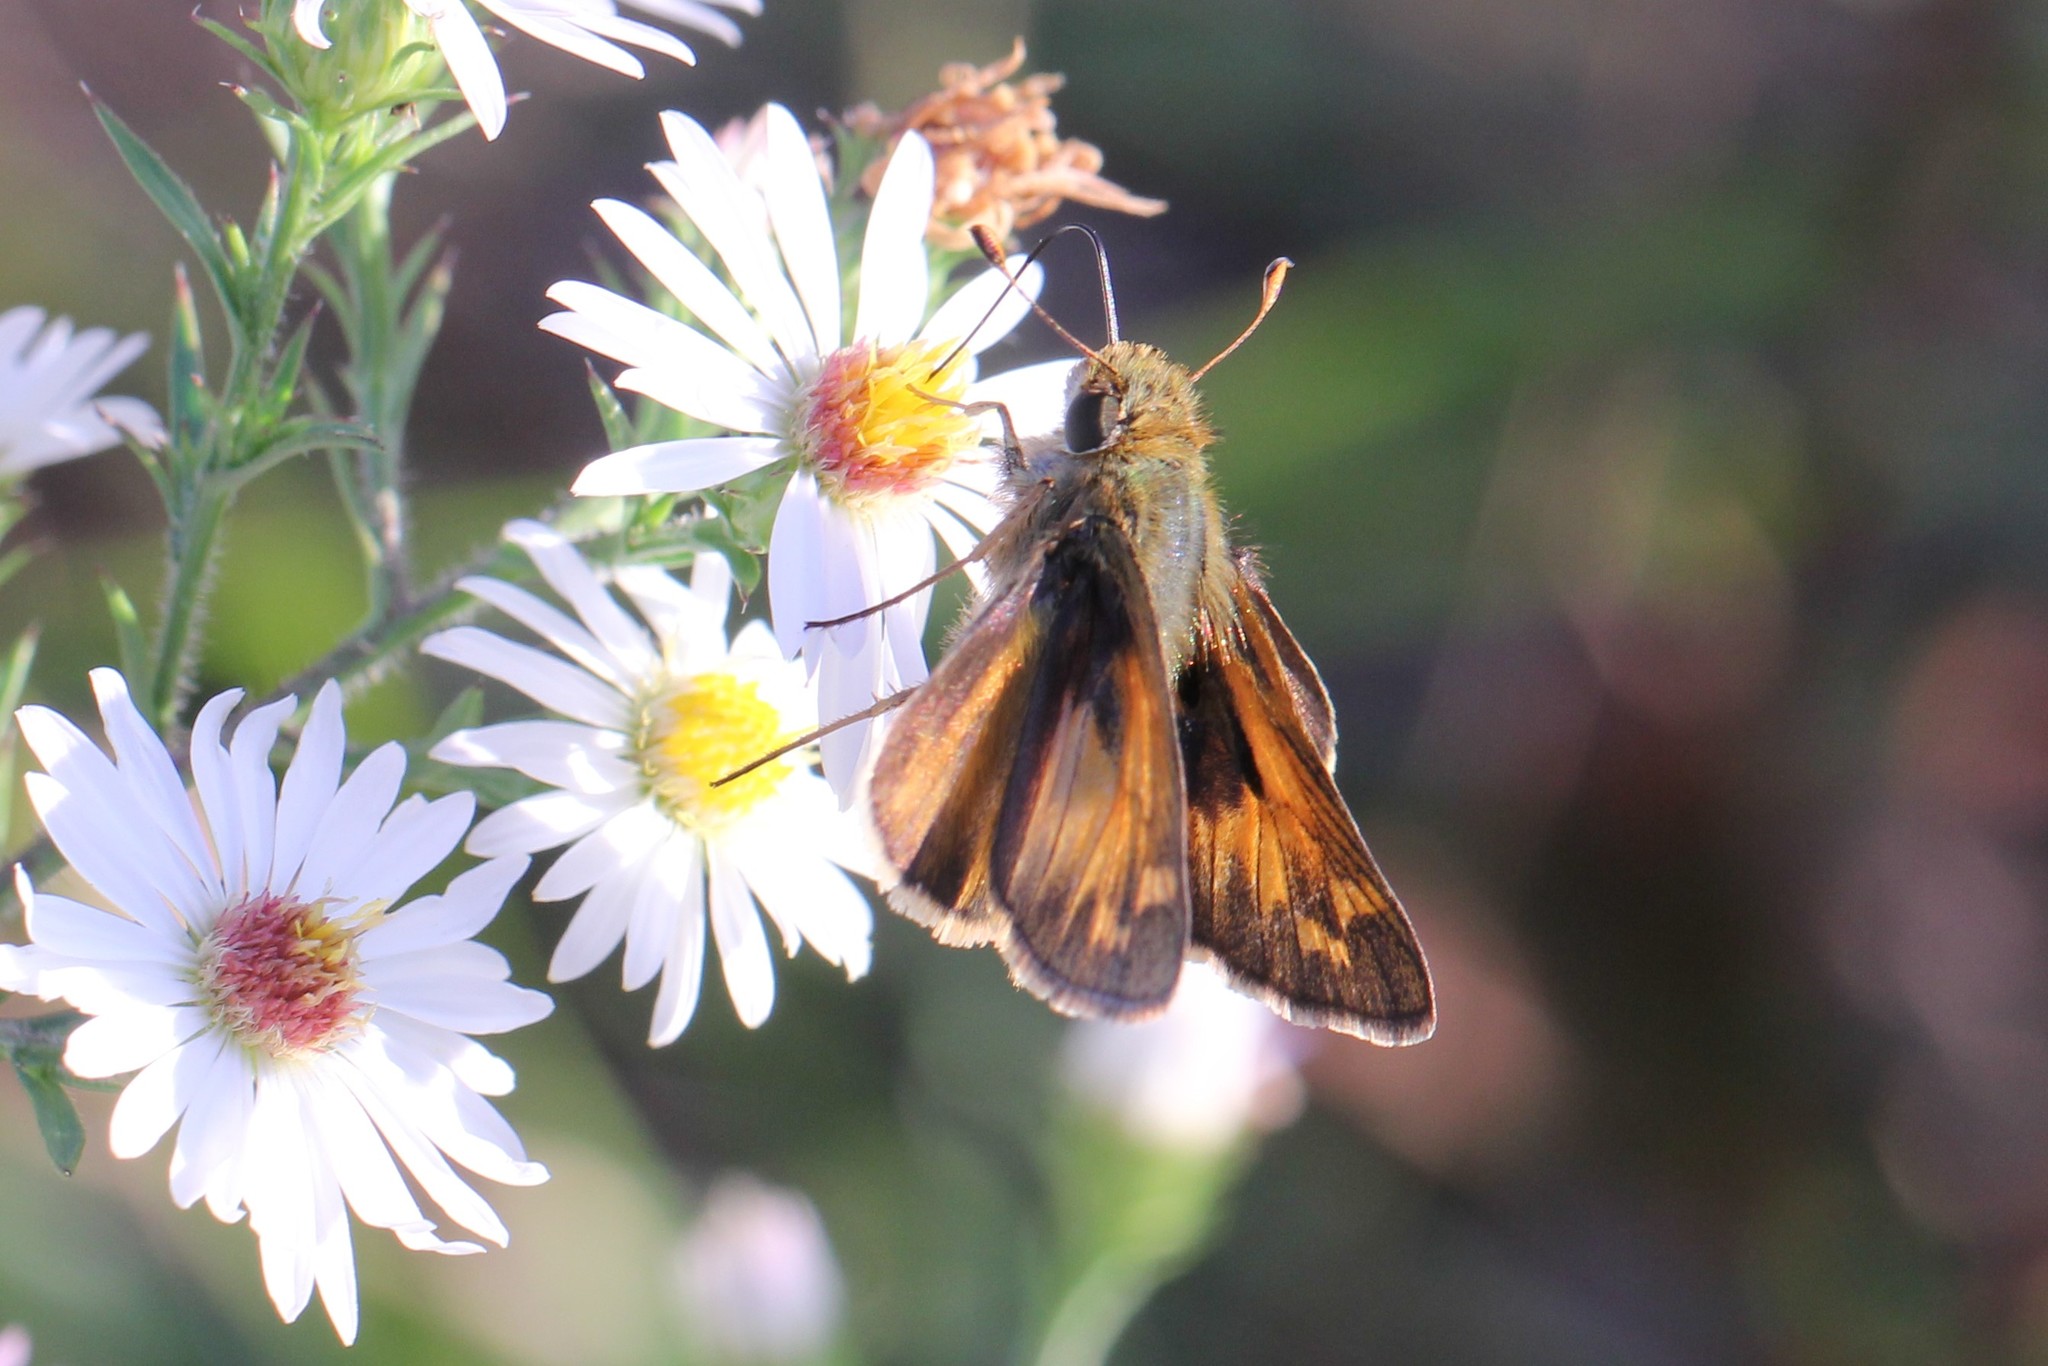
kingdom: Animalia
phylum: Arthropoda
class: Insecta
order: Lepidoptera
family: Hesperiidae
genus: Atalopedes
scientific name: Atalopedes
